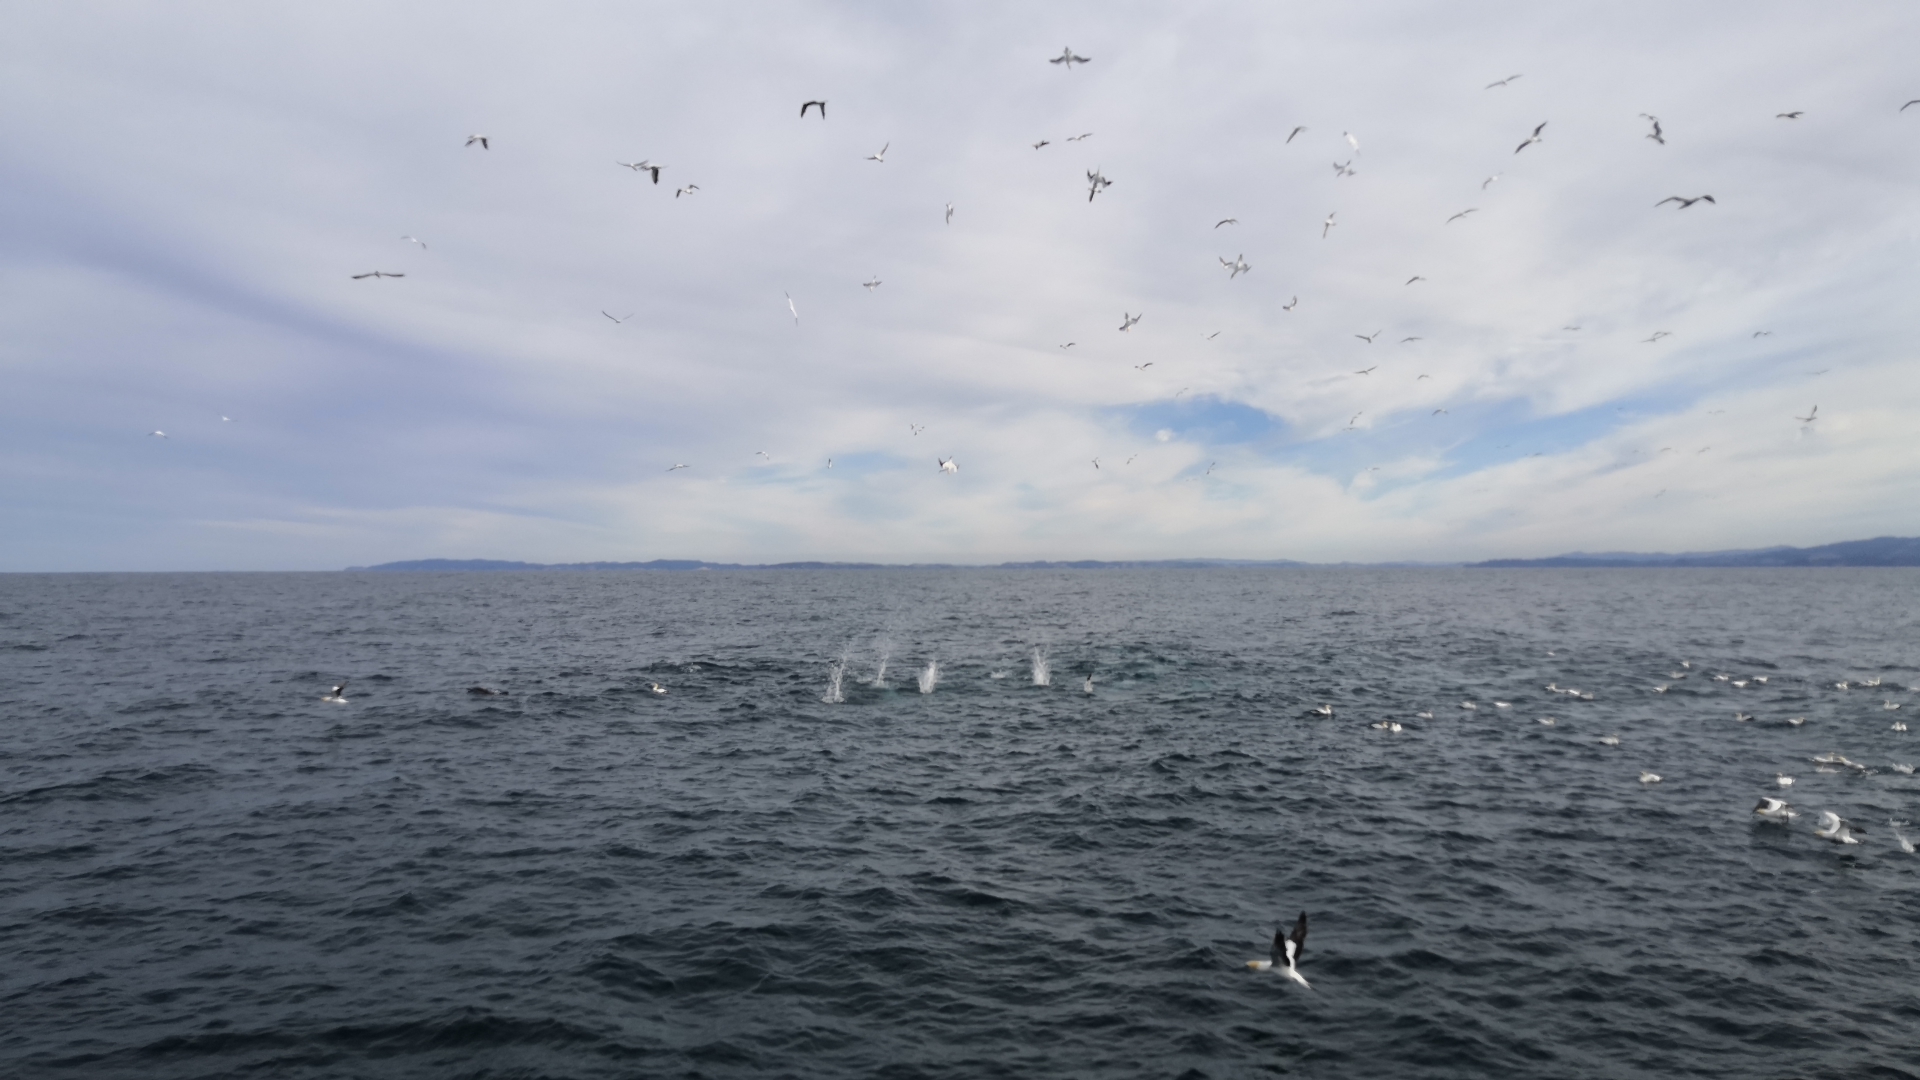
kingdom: Animalia
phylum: Chordata
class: Aves
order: Suliformes
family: Sulidae
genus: Morus
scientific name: Morus serrator
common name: Australasian gannet
